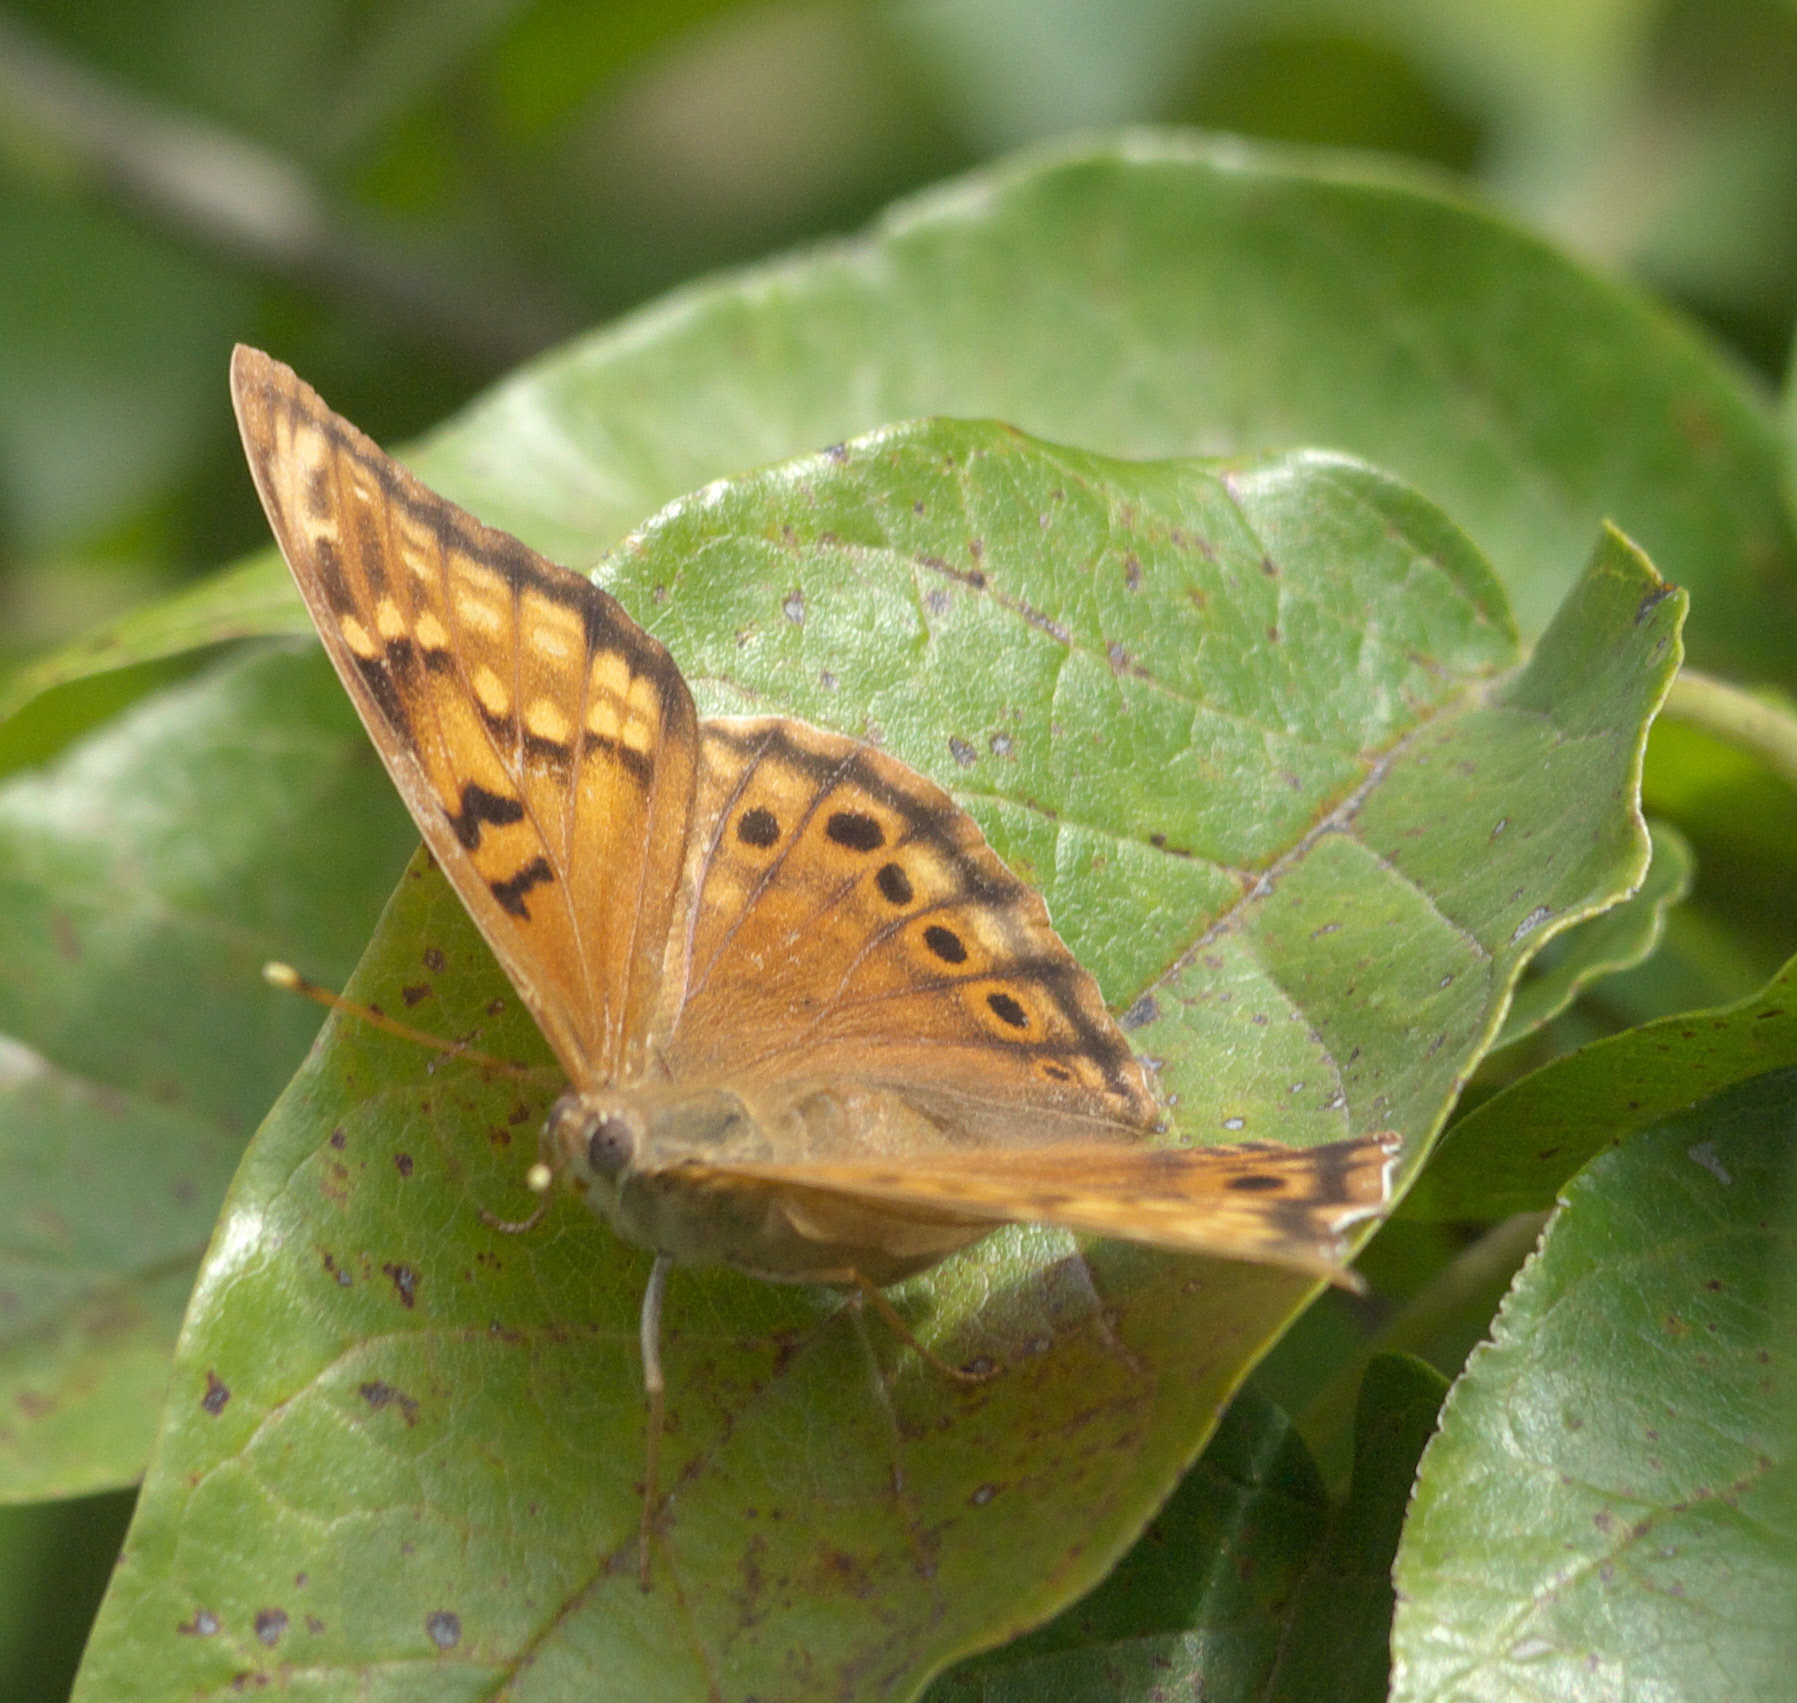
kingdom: Animalia
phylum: Arthropoda
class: Insecta
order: Lepidoptera
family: Nymphalidae
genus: Asterocampa
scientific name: Asterocampa clyton
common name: Tawny emperor
